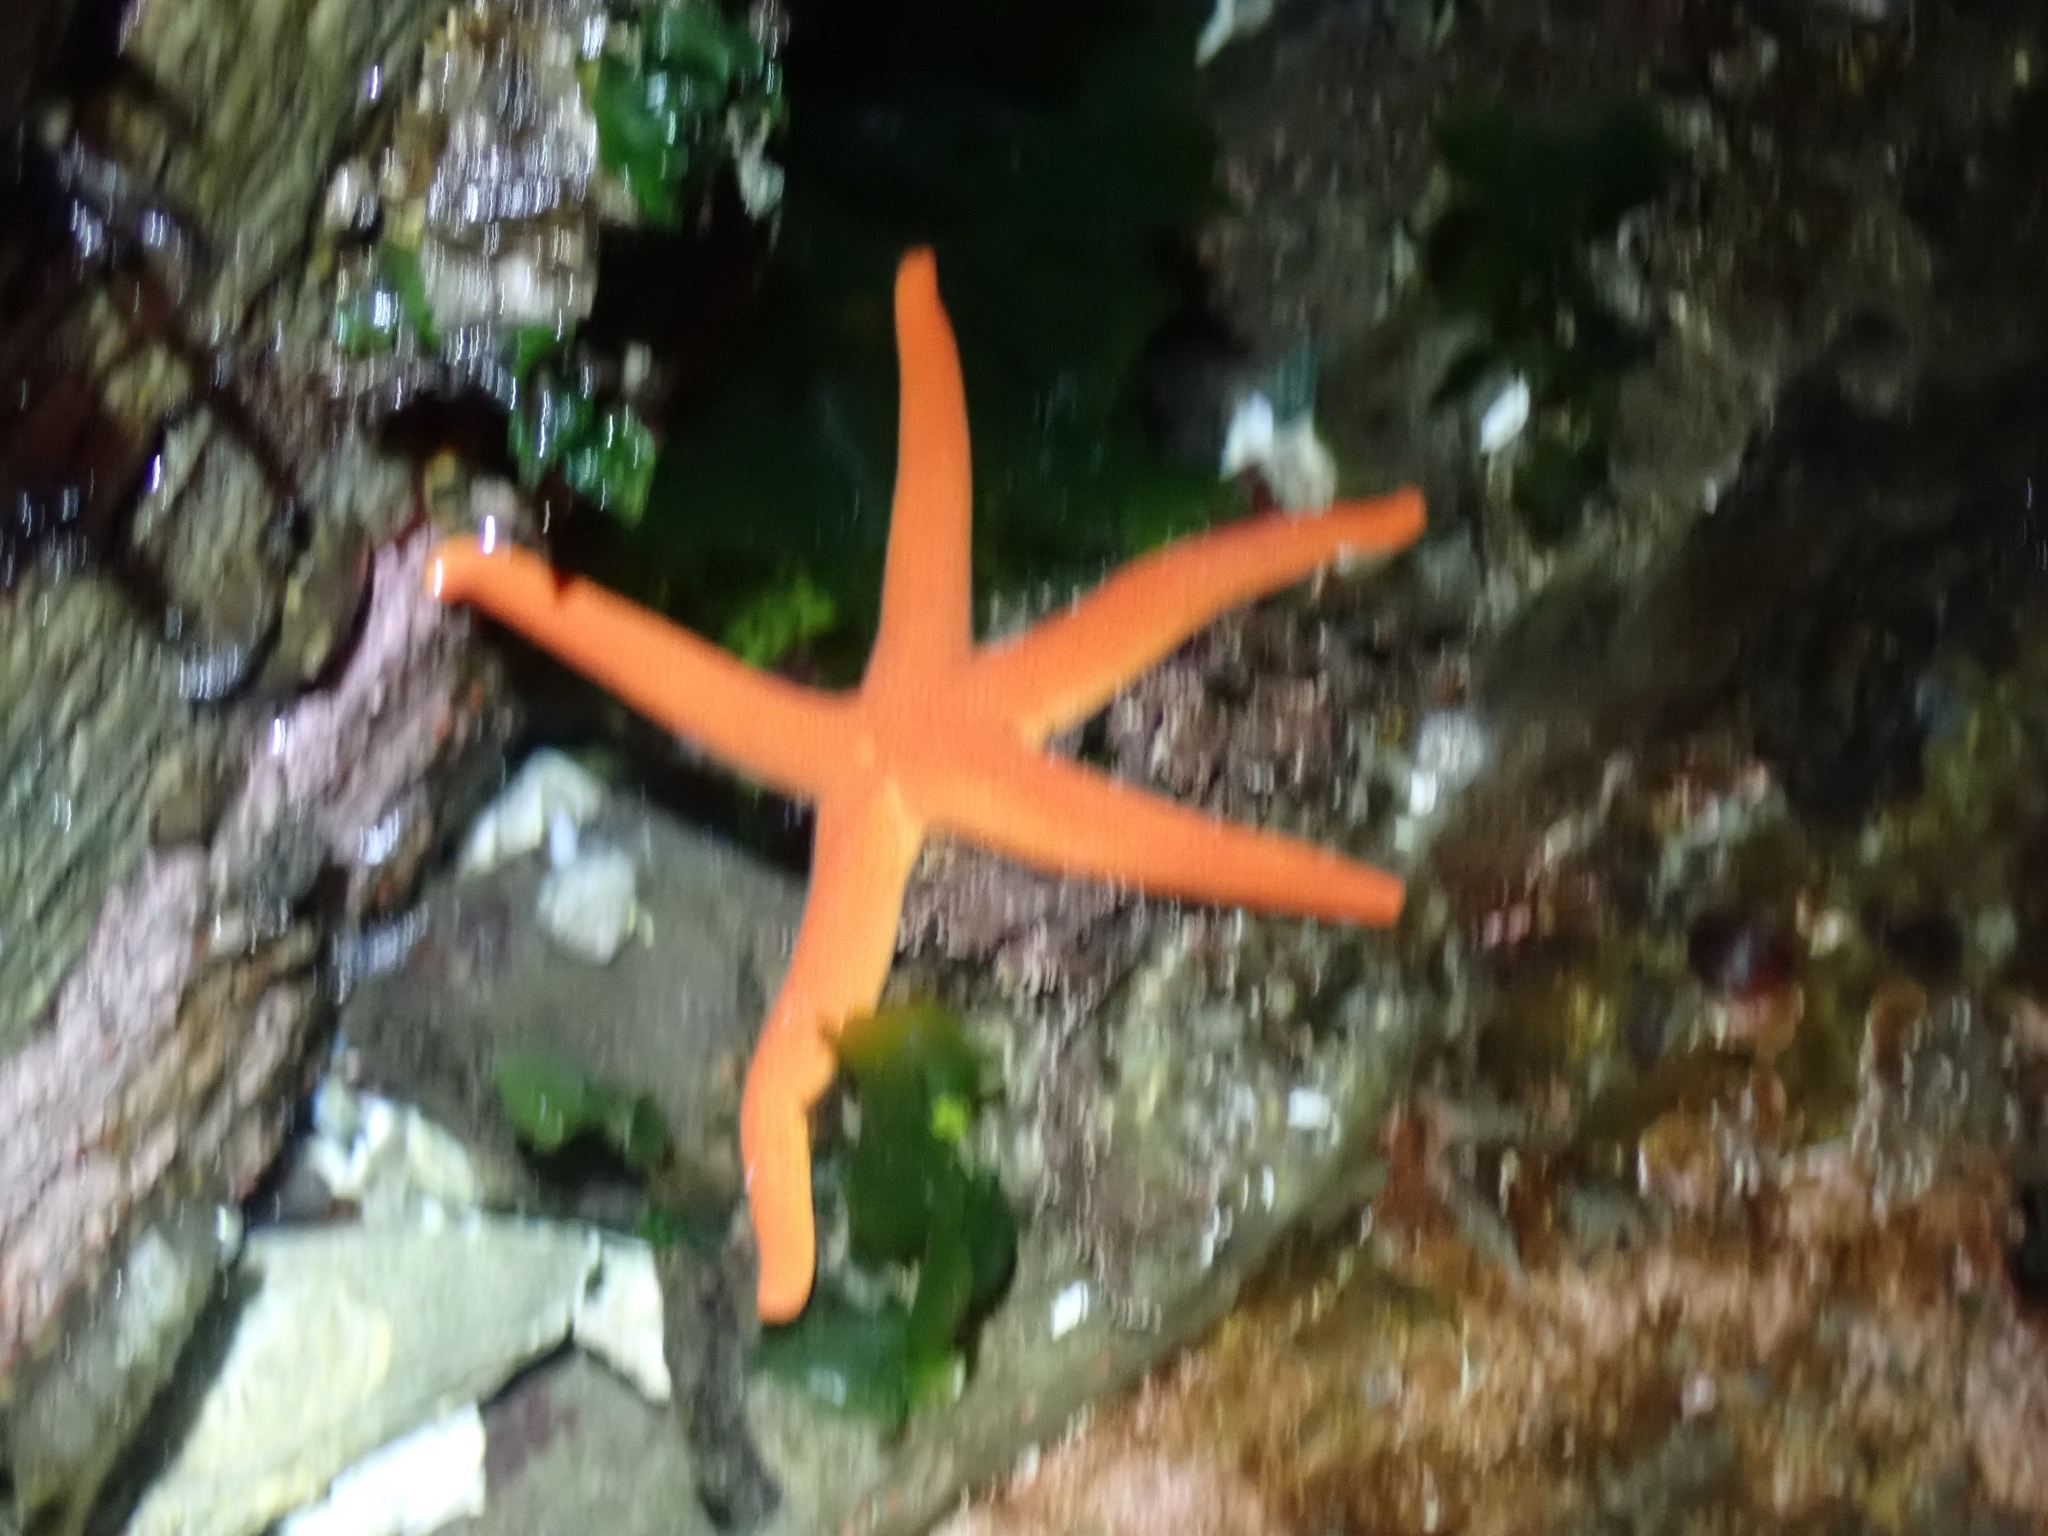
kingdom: Animalia
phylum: Echinodermata
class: Asteroidea
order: Spinulosida
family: Echinasteridae
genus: Henricia
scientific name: Henricia leviuscula
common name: Pacific blood star
